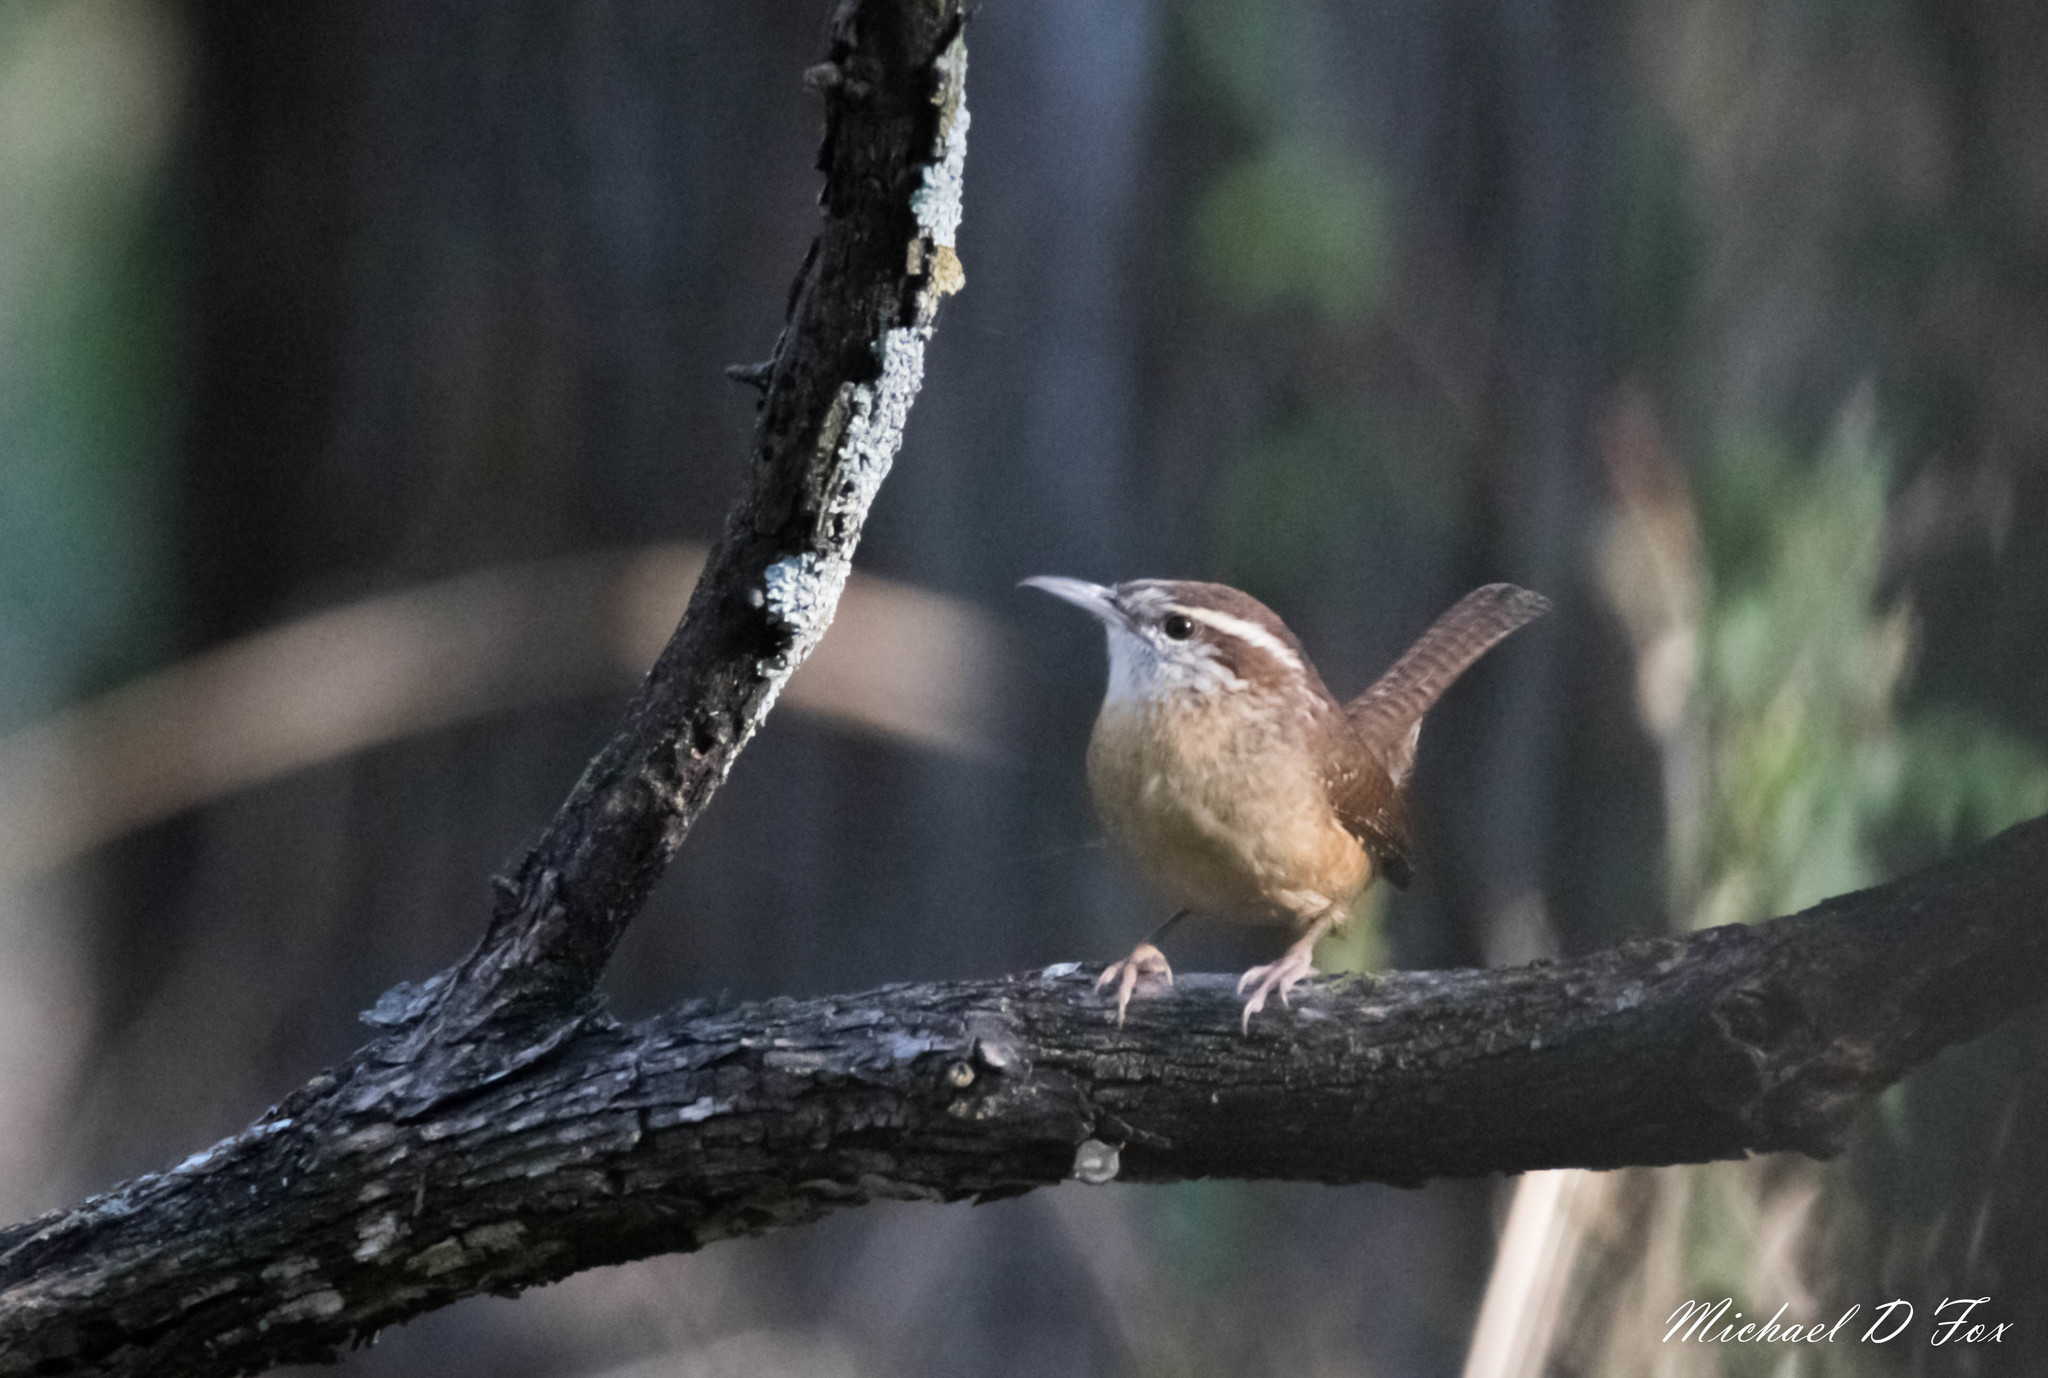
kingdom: Animalia
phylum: Chordata
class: Aves
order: Passeriformes
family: Troglodytidae
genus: Thryothorus
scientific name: Thryothorus ludovicianus
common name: Carolina wren
